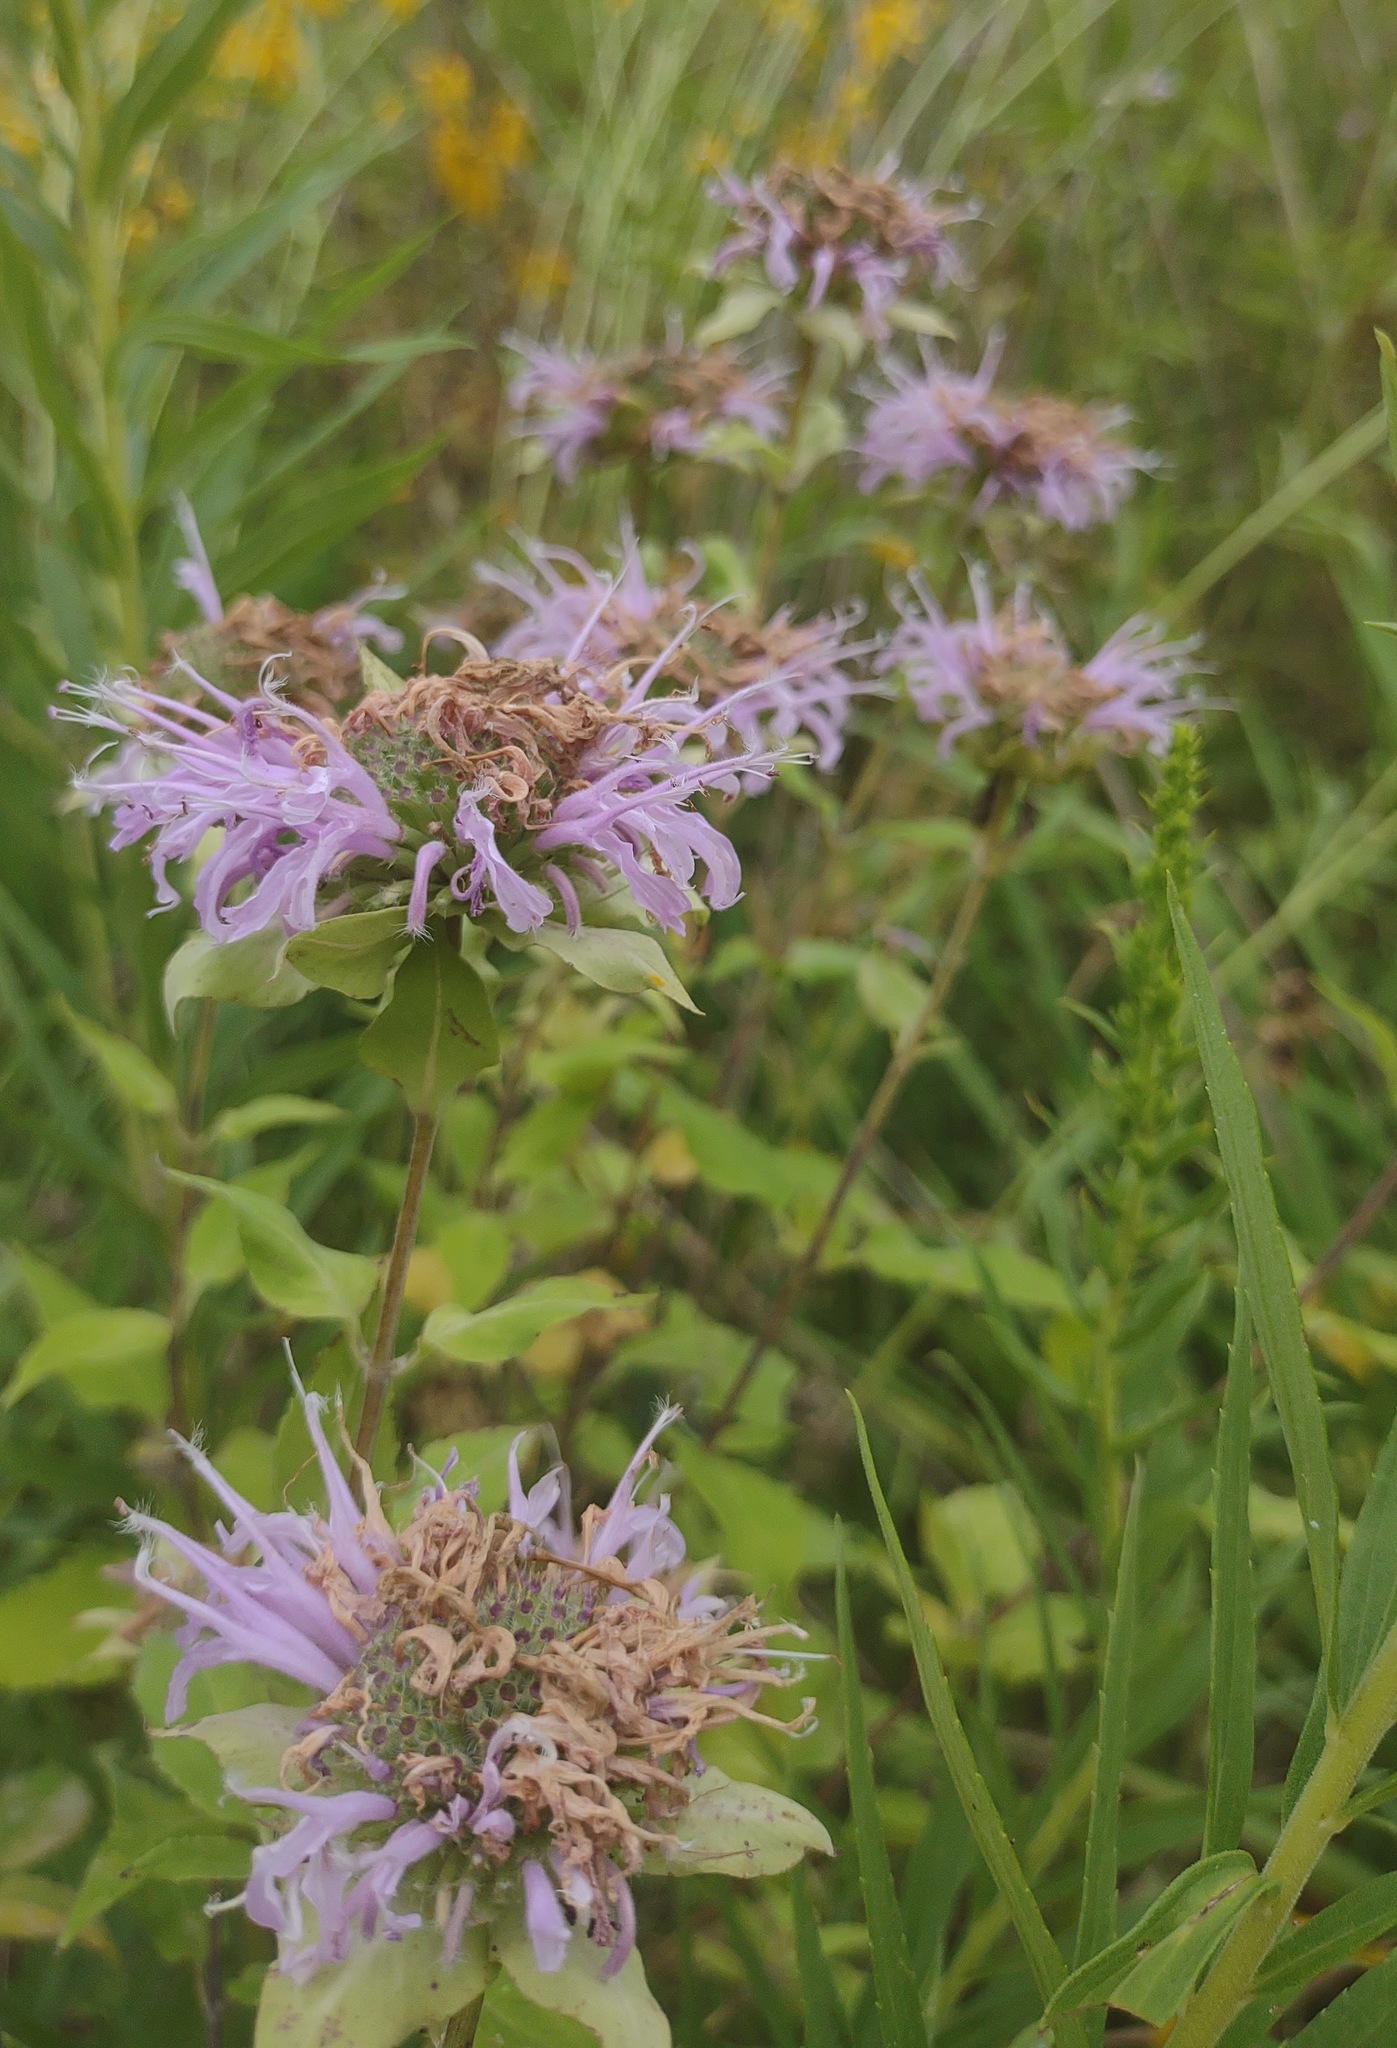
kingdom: Plantae
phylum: Tracheophyta
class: Magnoliopsida
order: Lamiales
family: Lamiaceae
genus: Monarda
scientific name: Monarda fistulosa
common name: Purple beebalm
